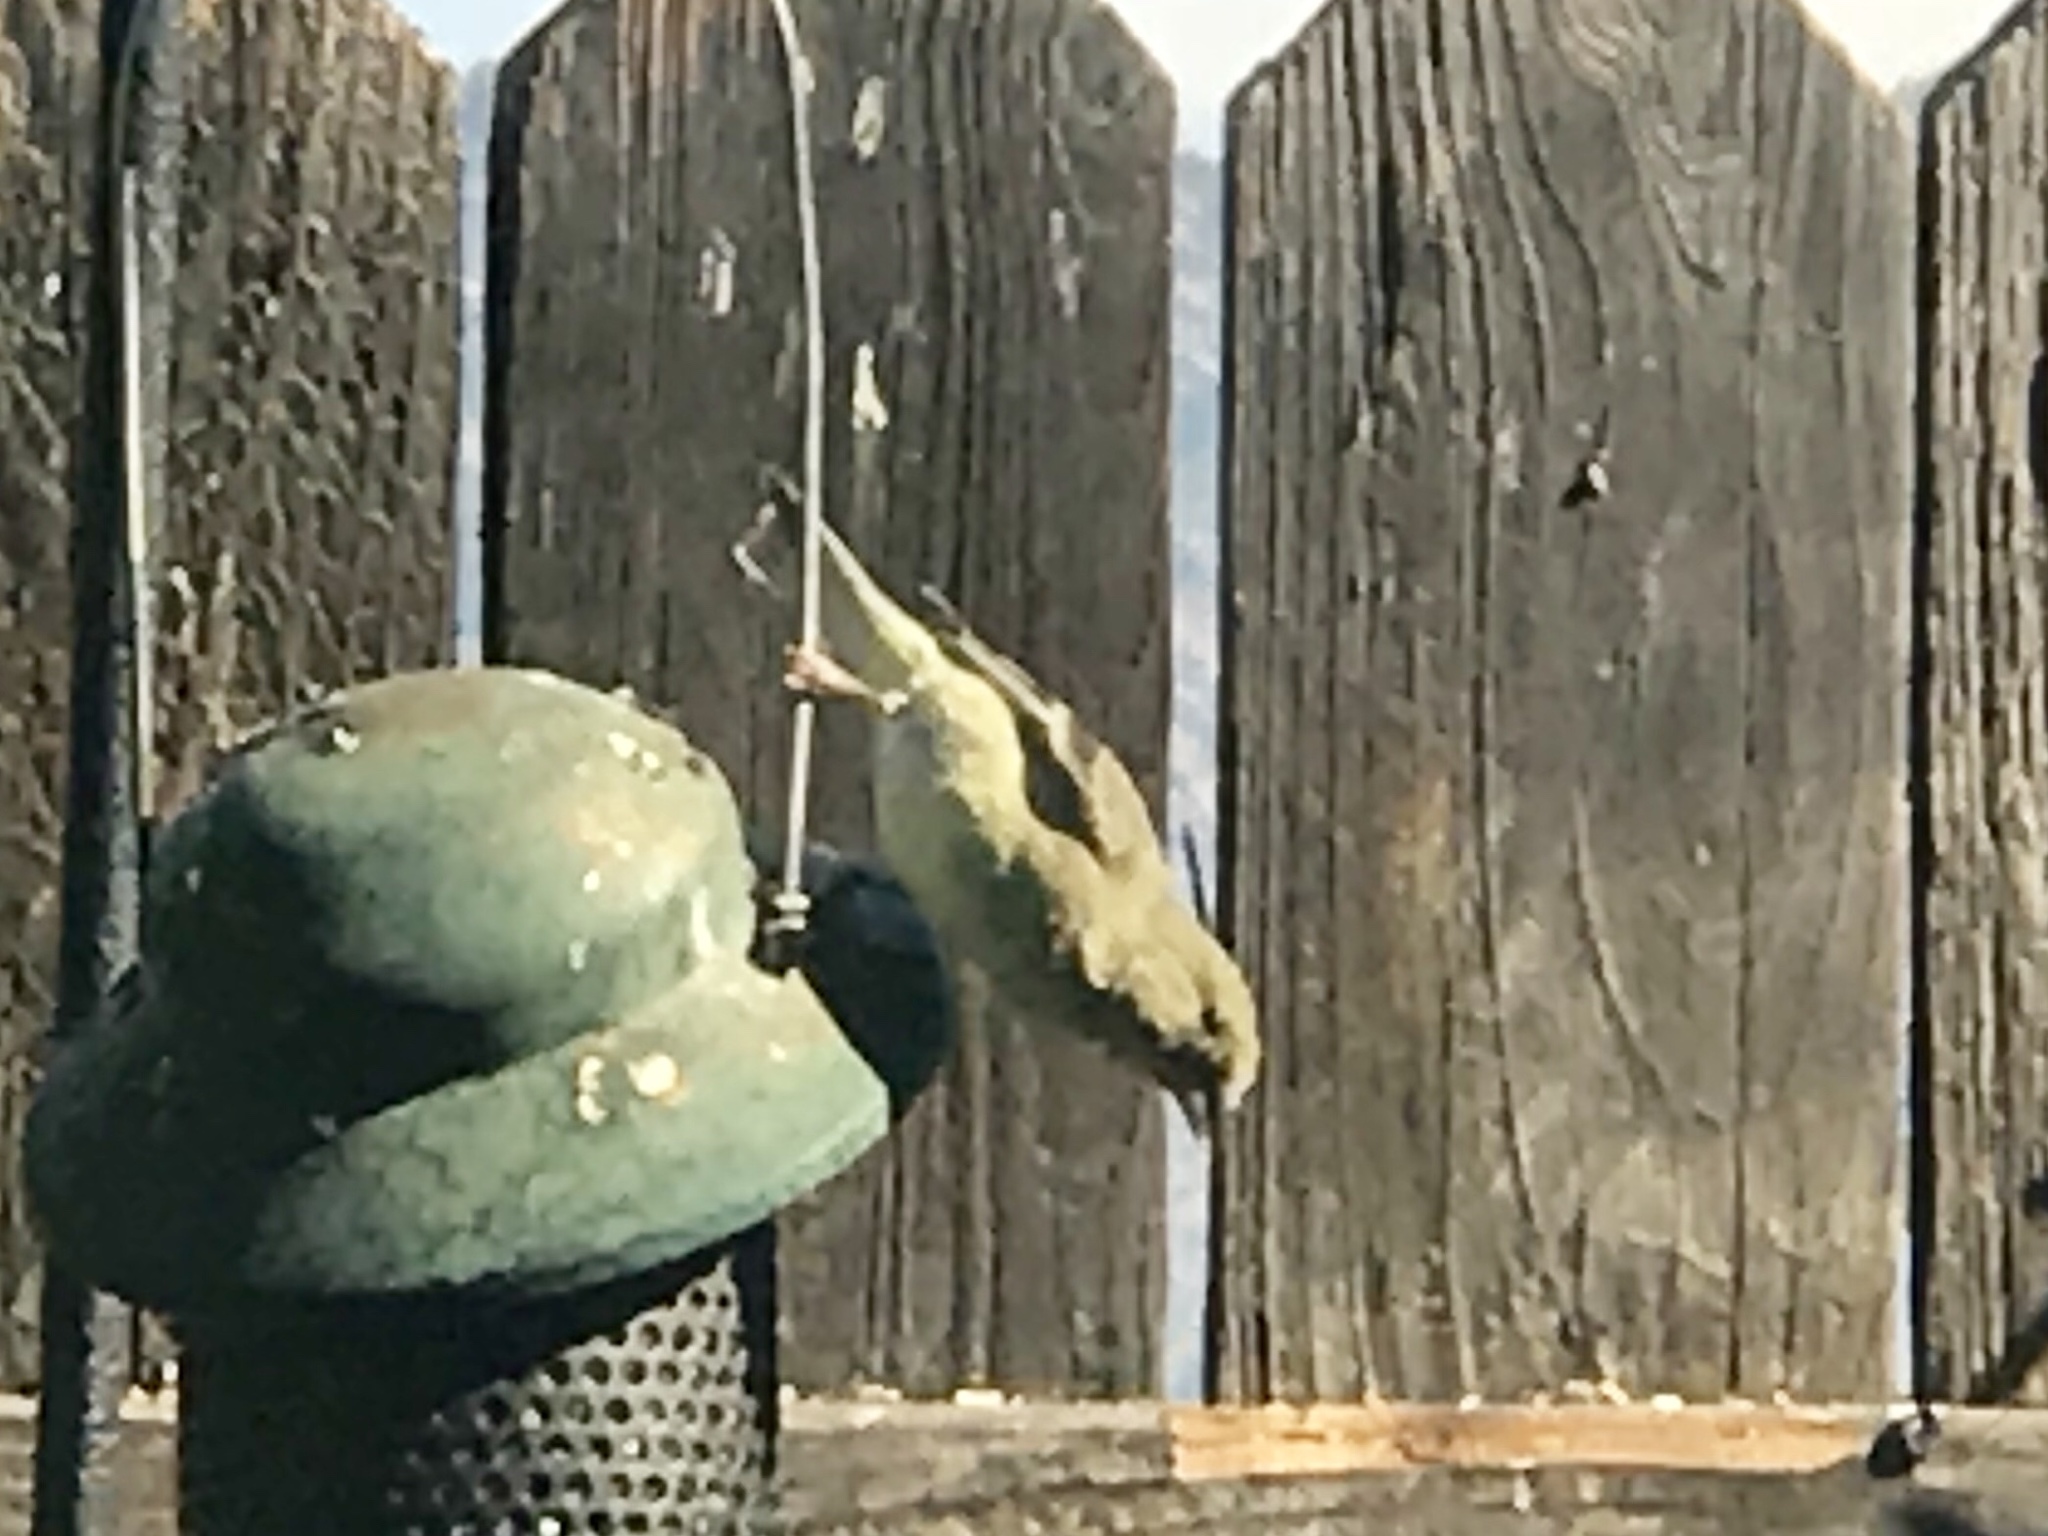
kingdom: Animalia
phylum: Chordata
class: Aves
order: Passeriformes
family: Fringillidae
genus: Spinus
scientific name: Spinus psaltria
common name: Lesser goldfinch
